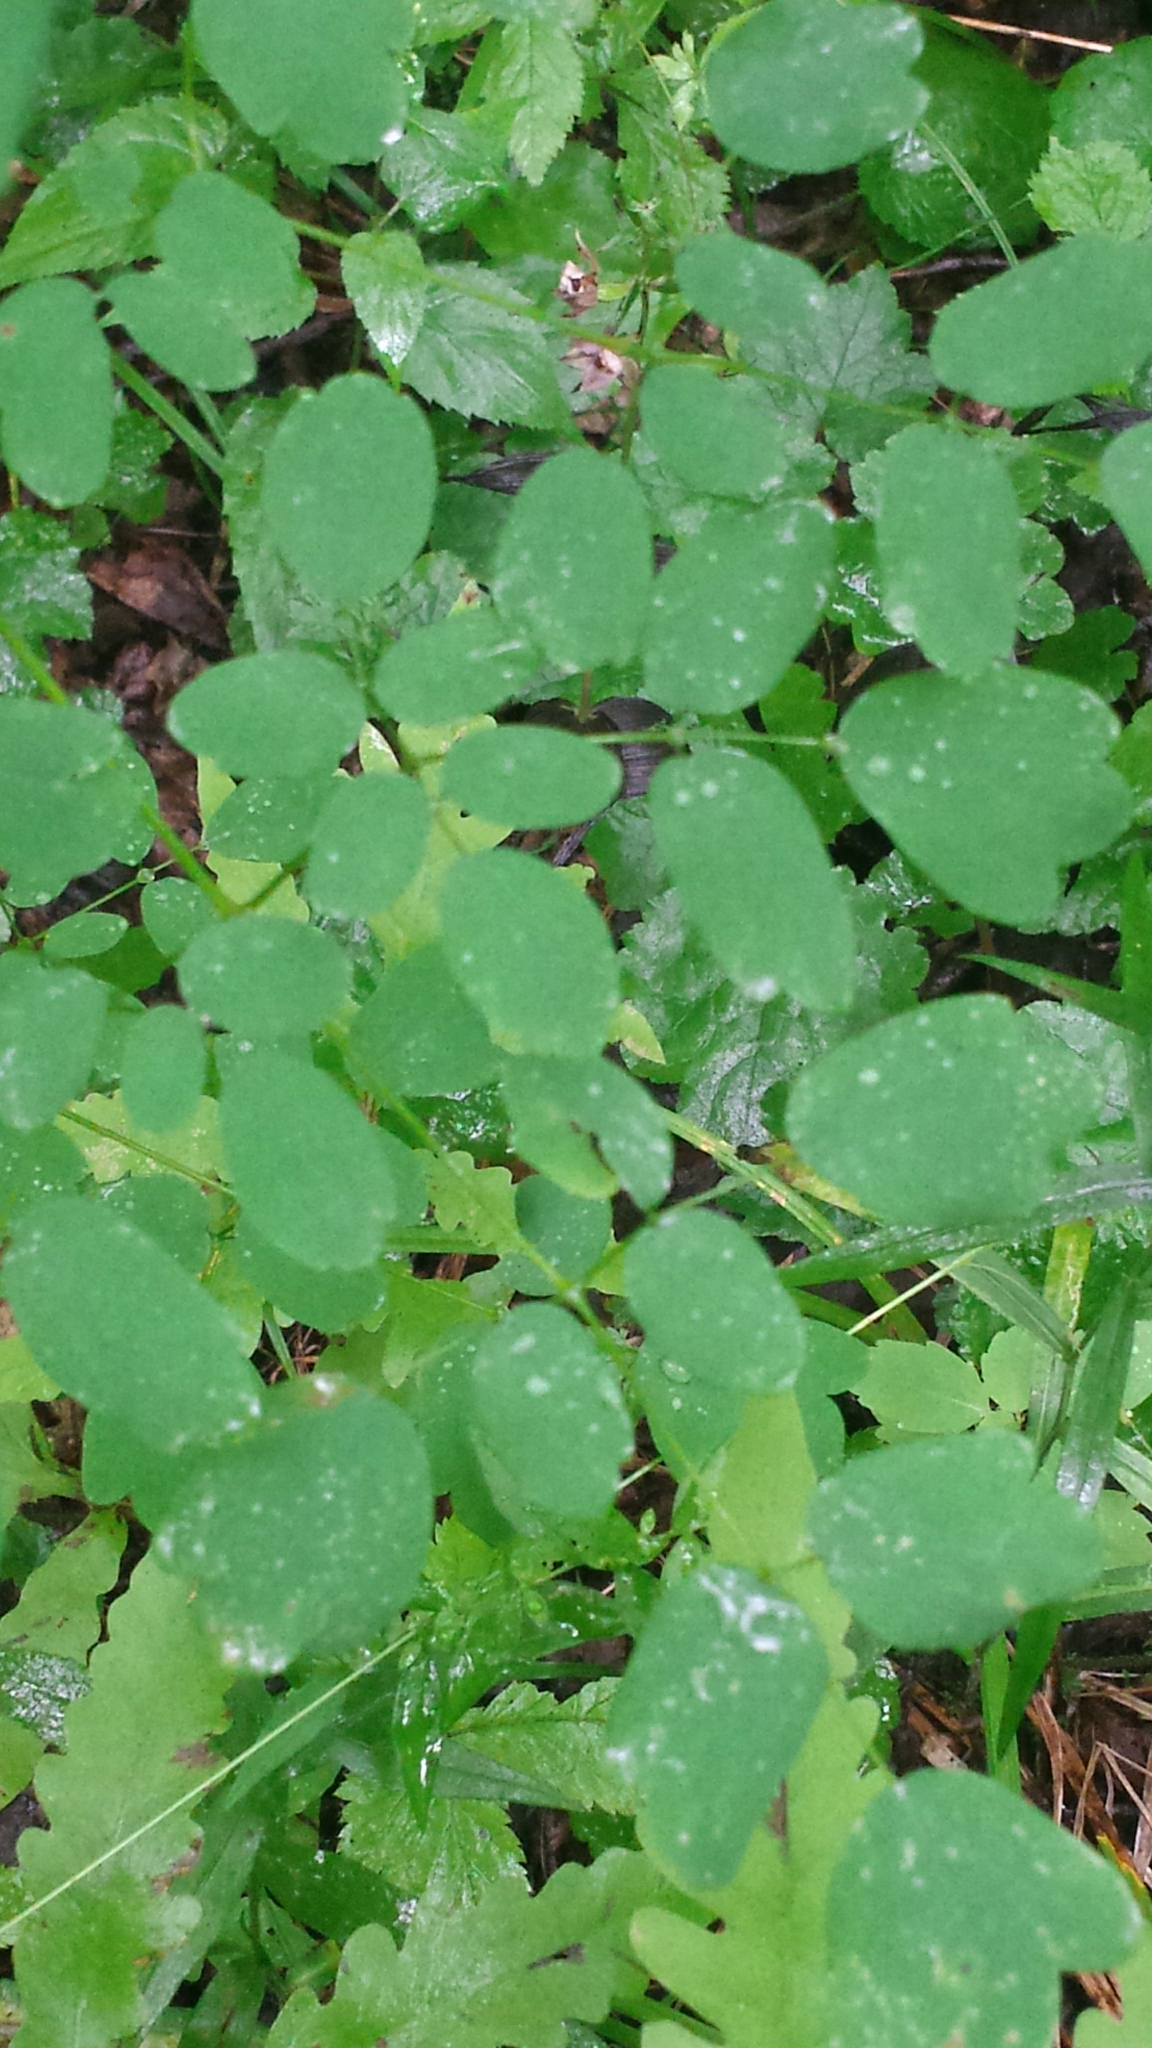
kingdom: Plantae
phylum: Tracheophyta
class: Magnoliopsida
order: Ranunculales
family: Ranunculaceae
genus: Thalictrum
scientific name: Thalictrum pubescens
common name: King-of-the-meadow
